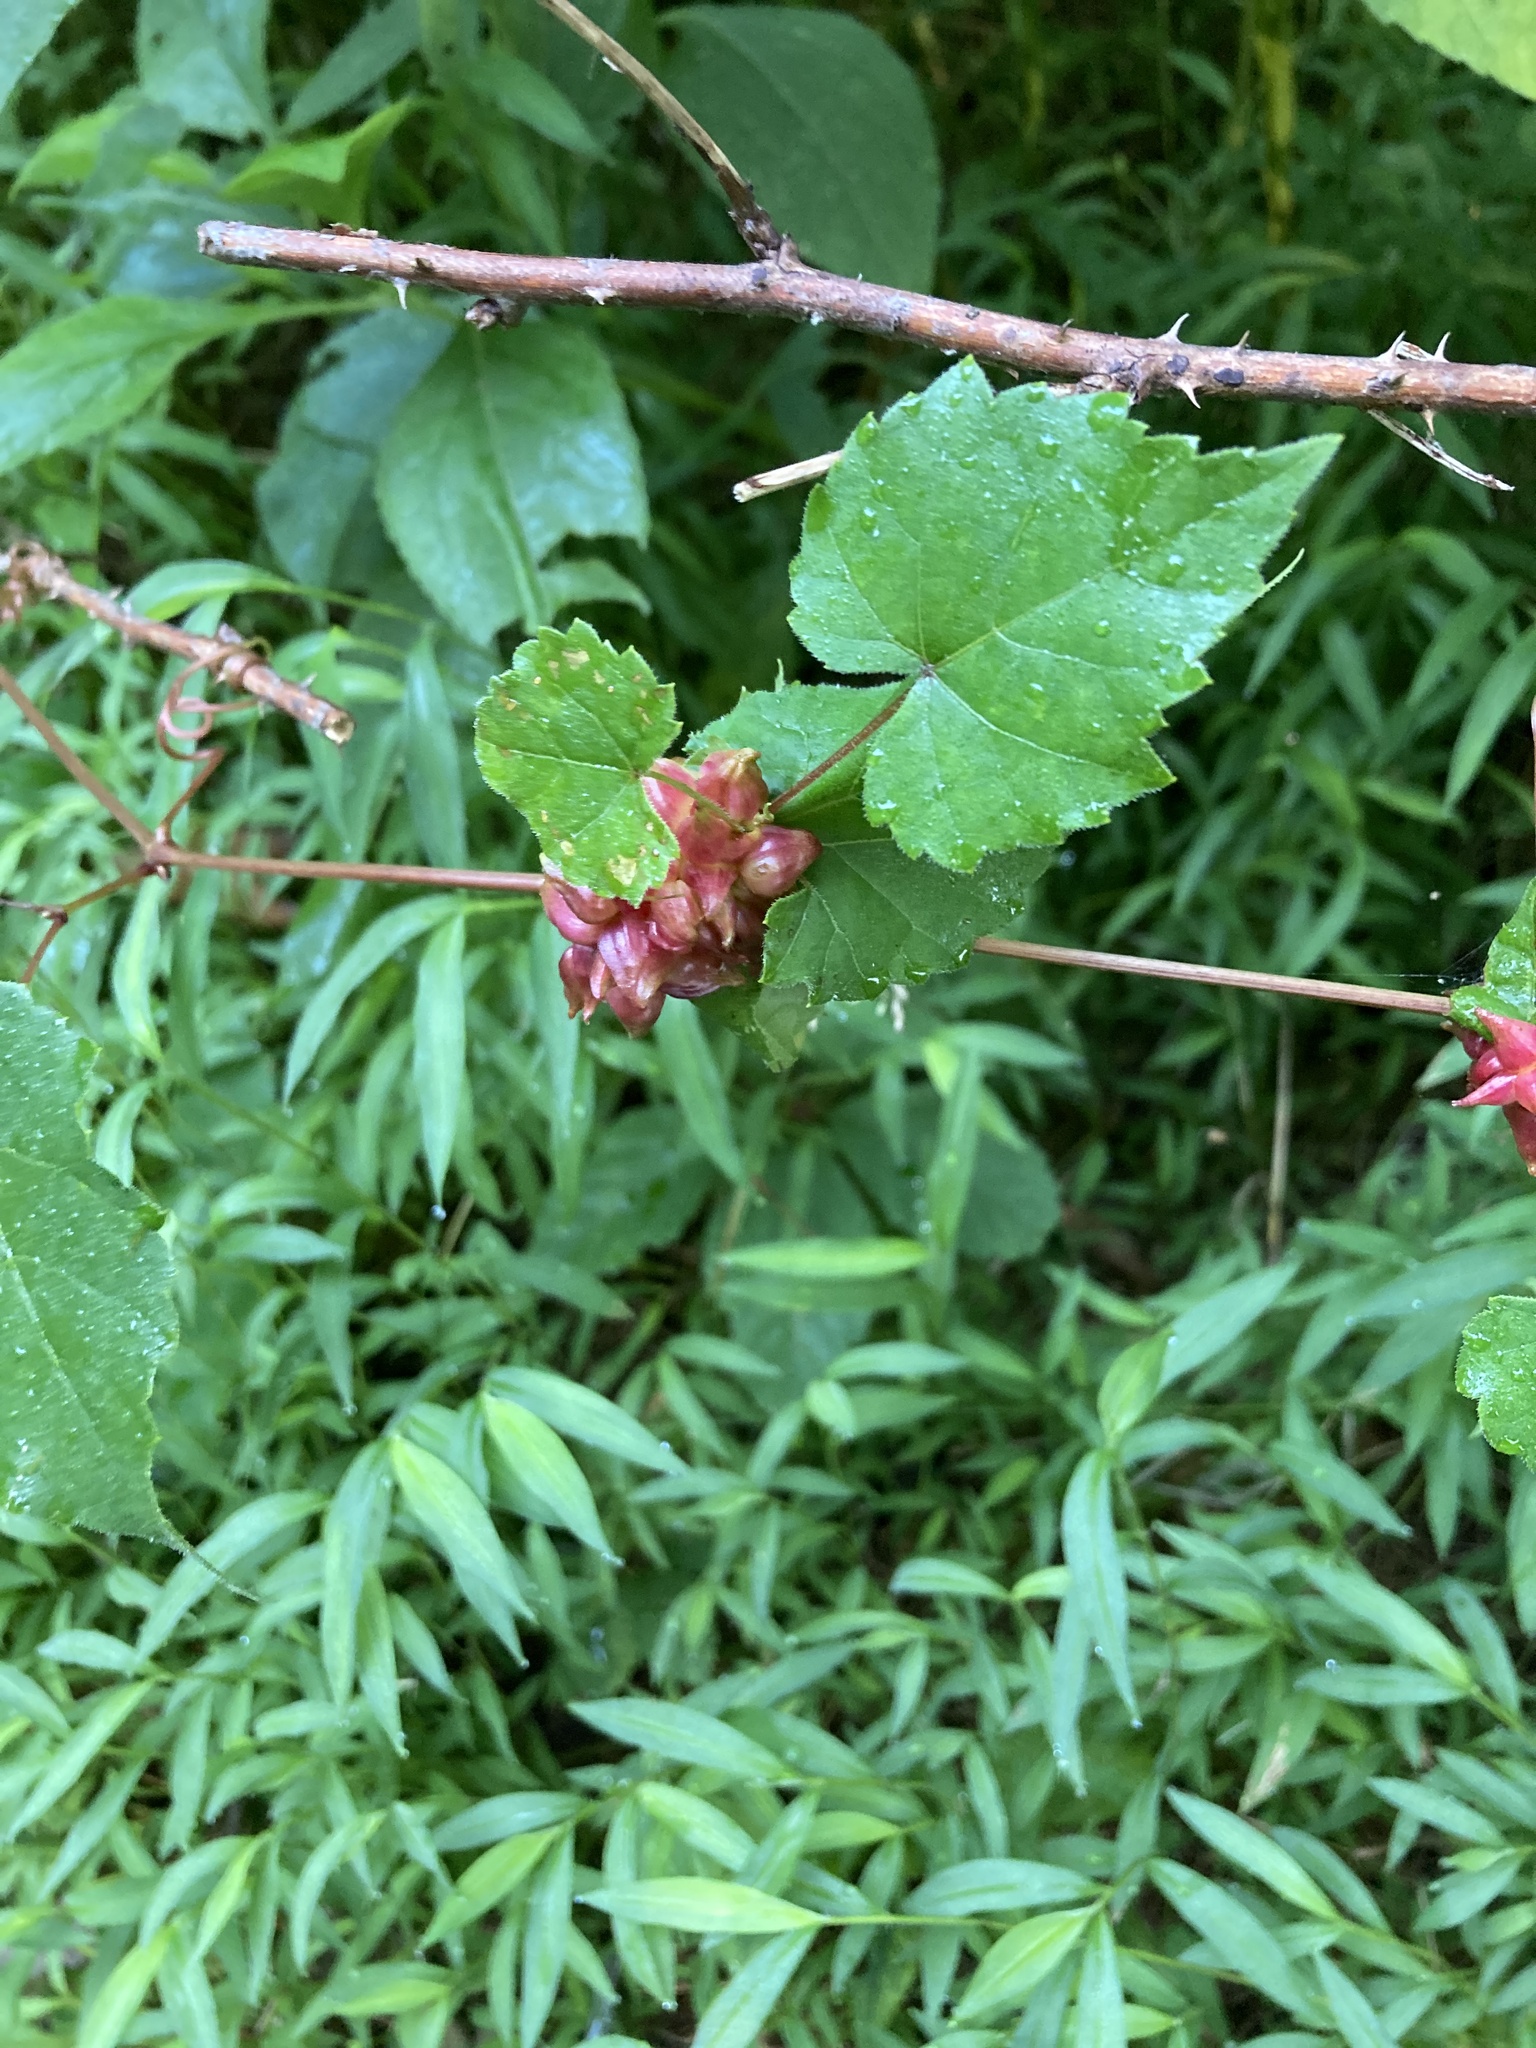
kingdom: Animalia
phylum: Arthropoda
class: Insecta
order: Diptera
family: Cecidomyiidae
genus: Ampelomyia
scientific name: Ampelomyia vitiscoryloides
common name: Grape filbert gall
